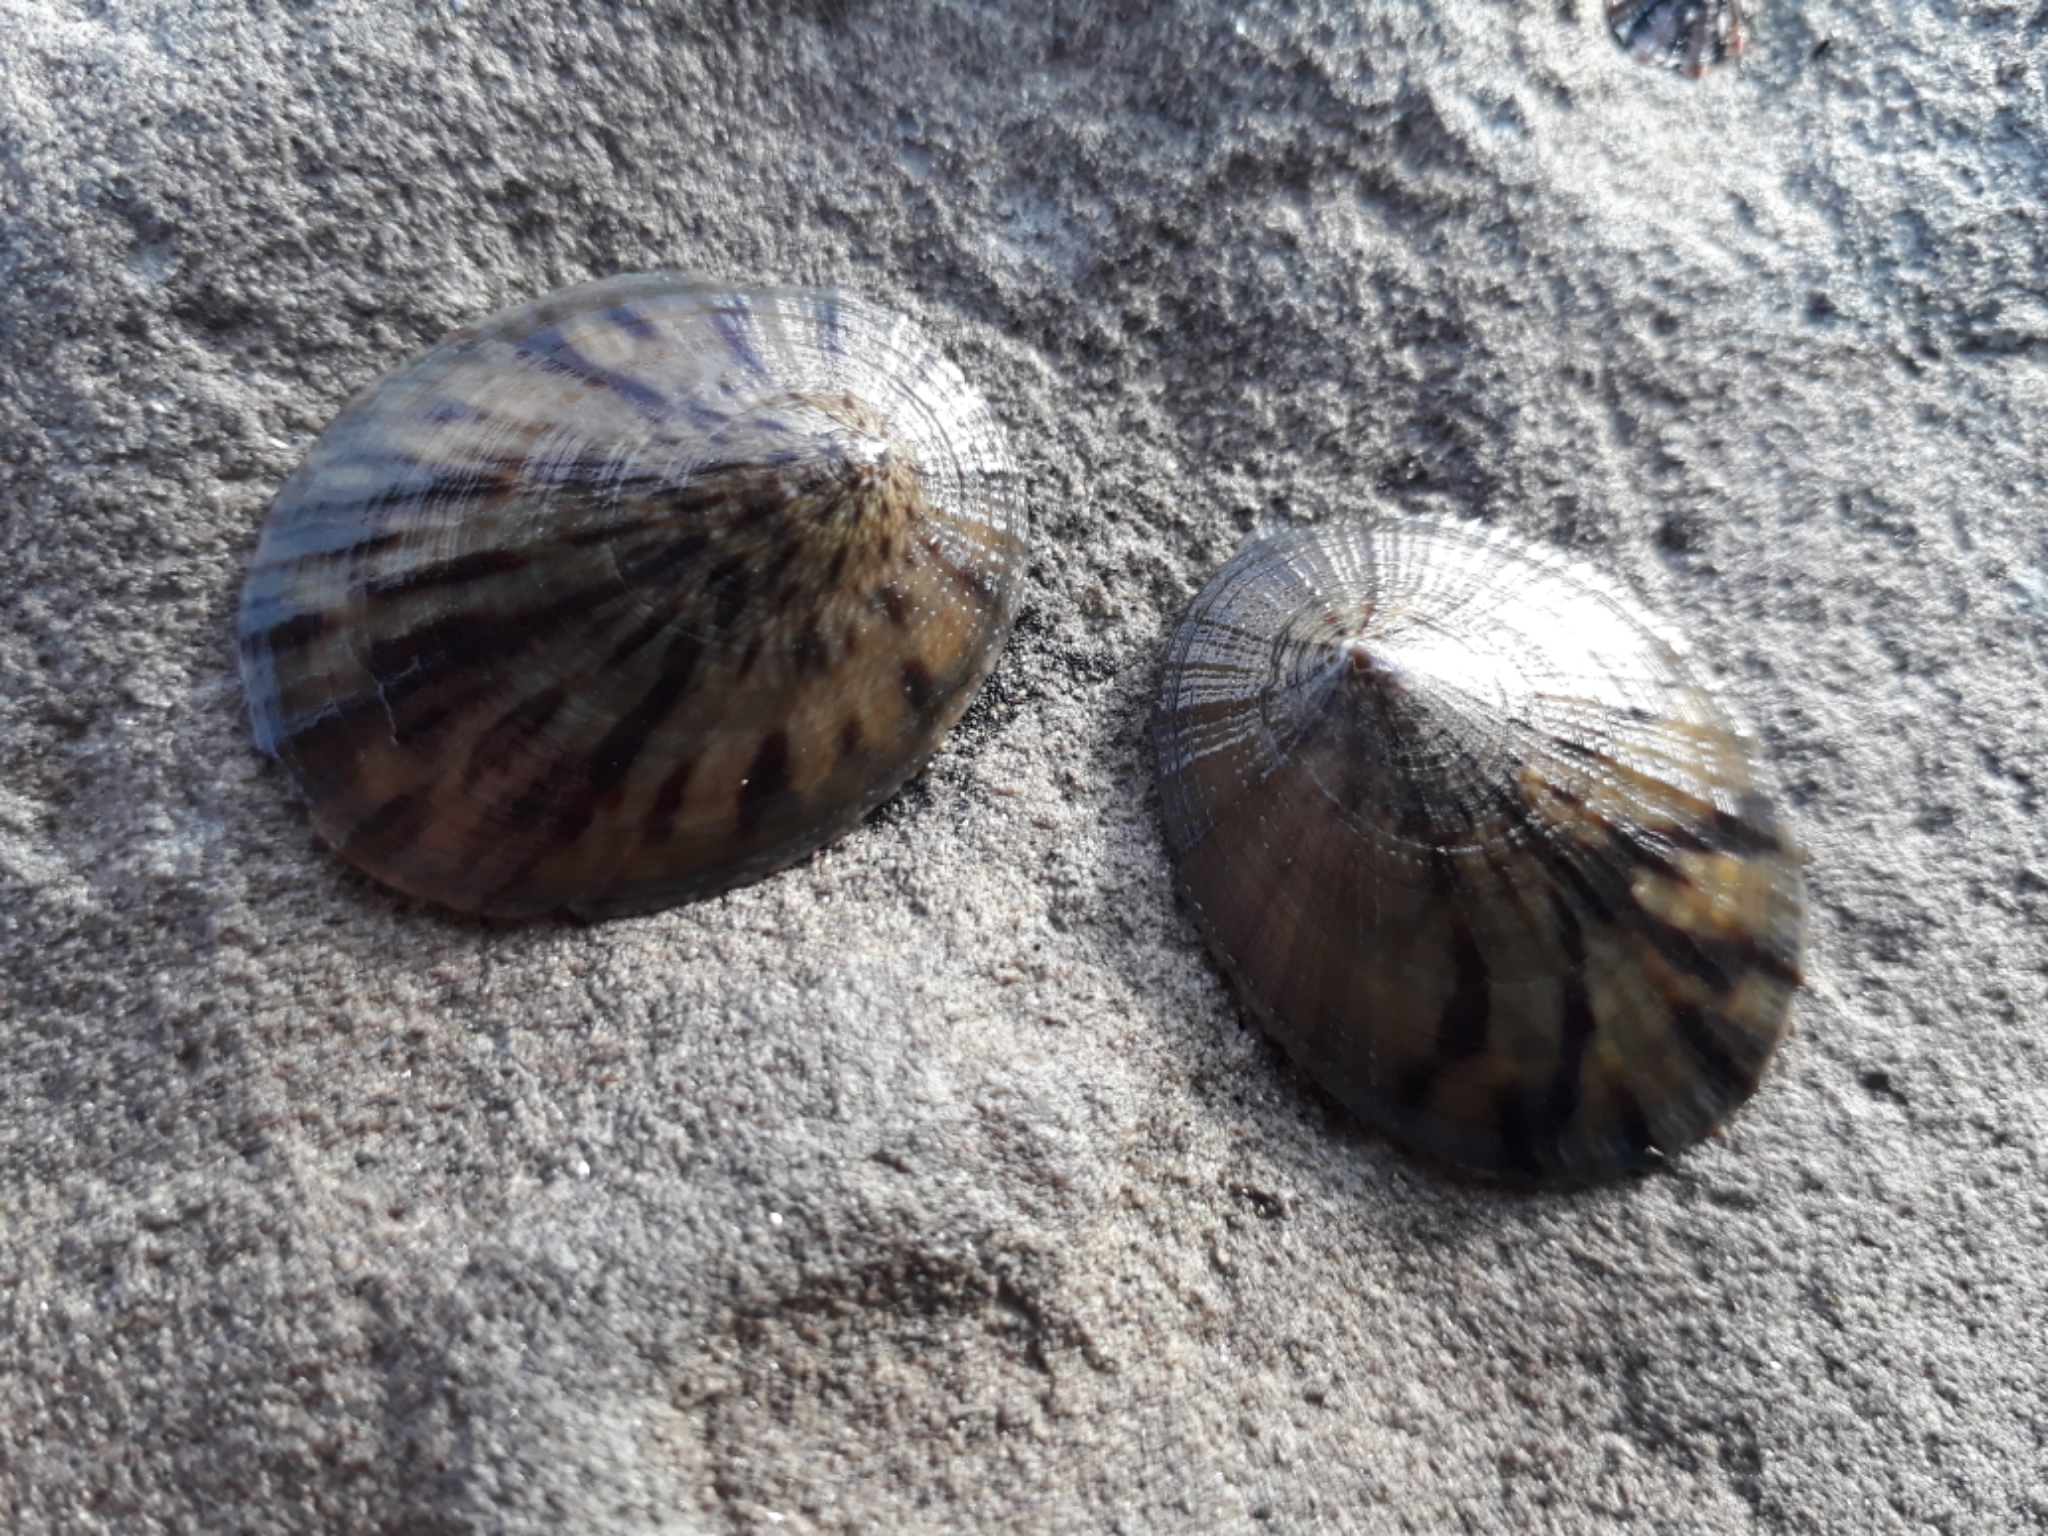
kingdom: Animalia
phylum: Mollusca
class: Gastropoda
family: Nacellidae
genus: Cellana
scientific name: Cellana radians
